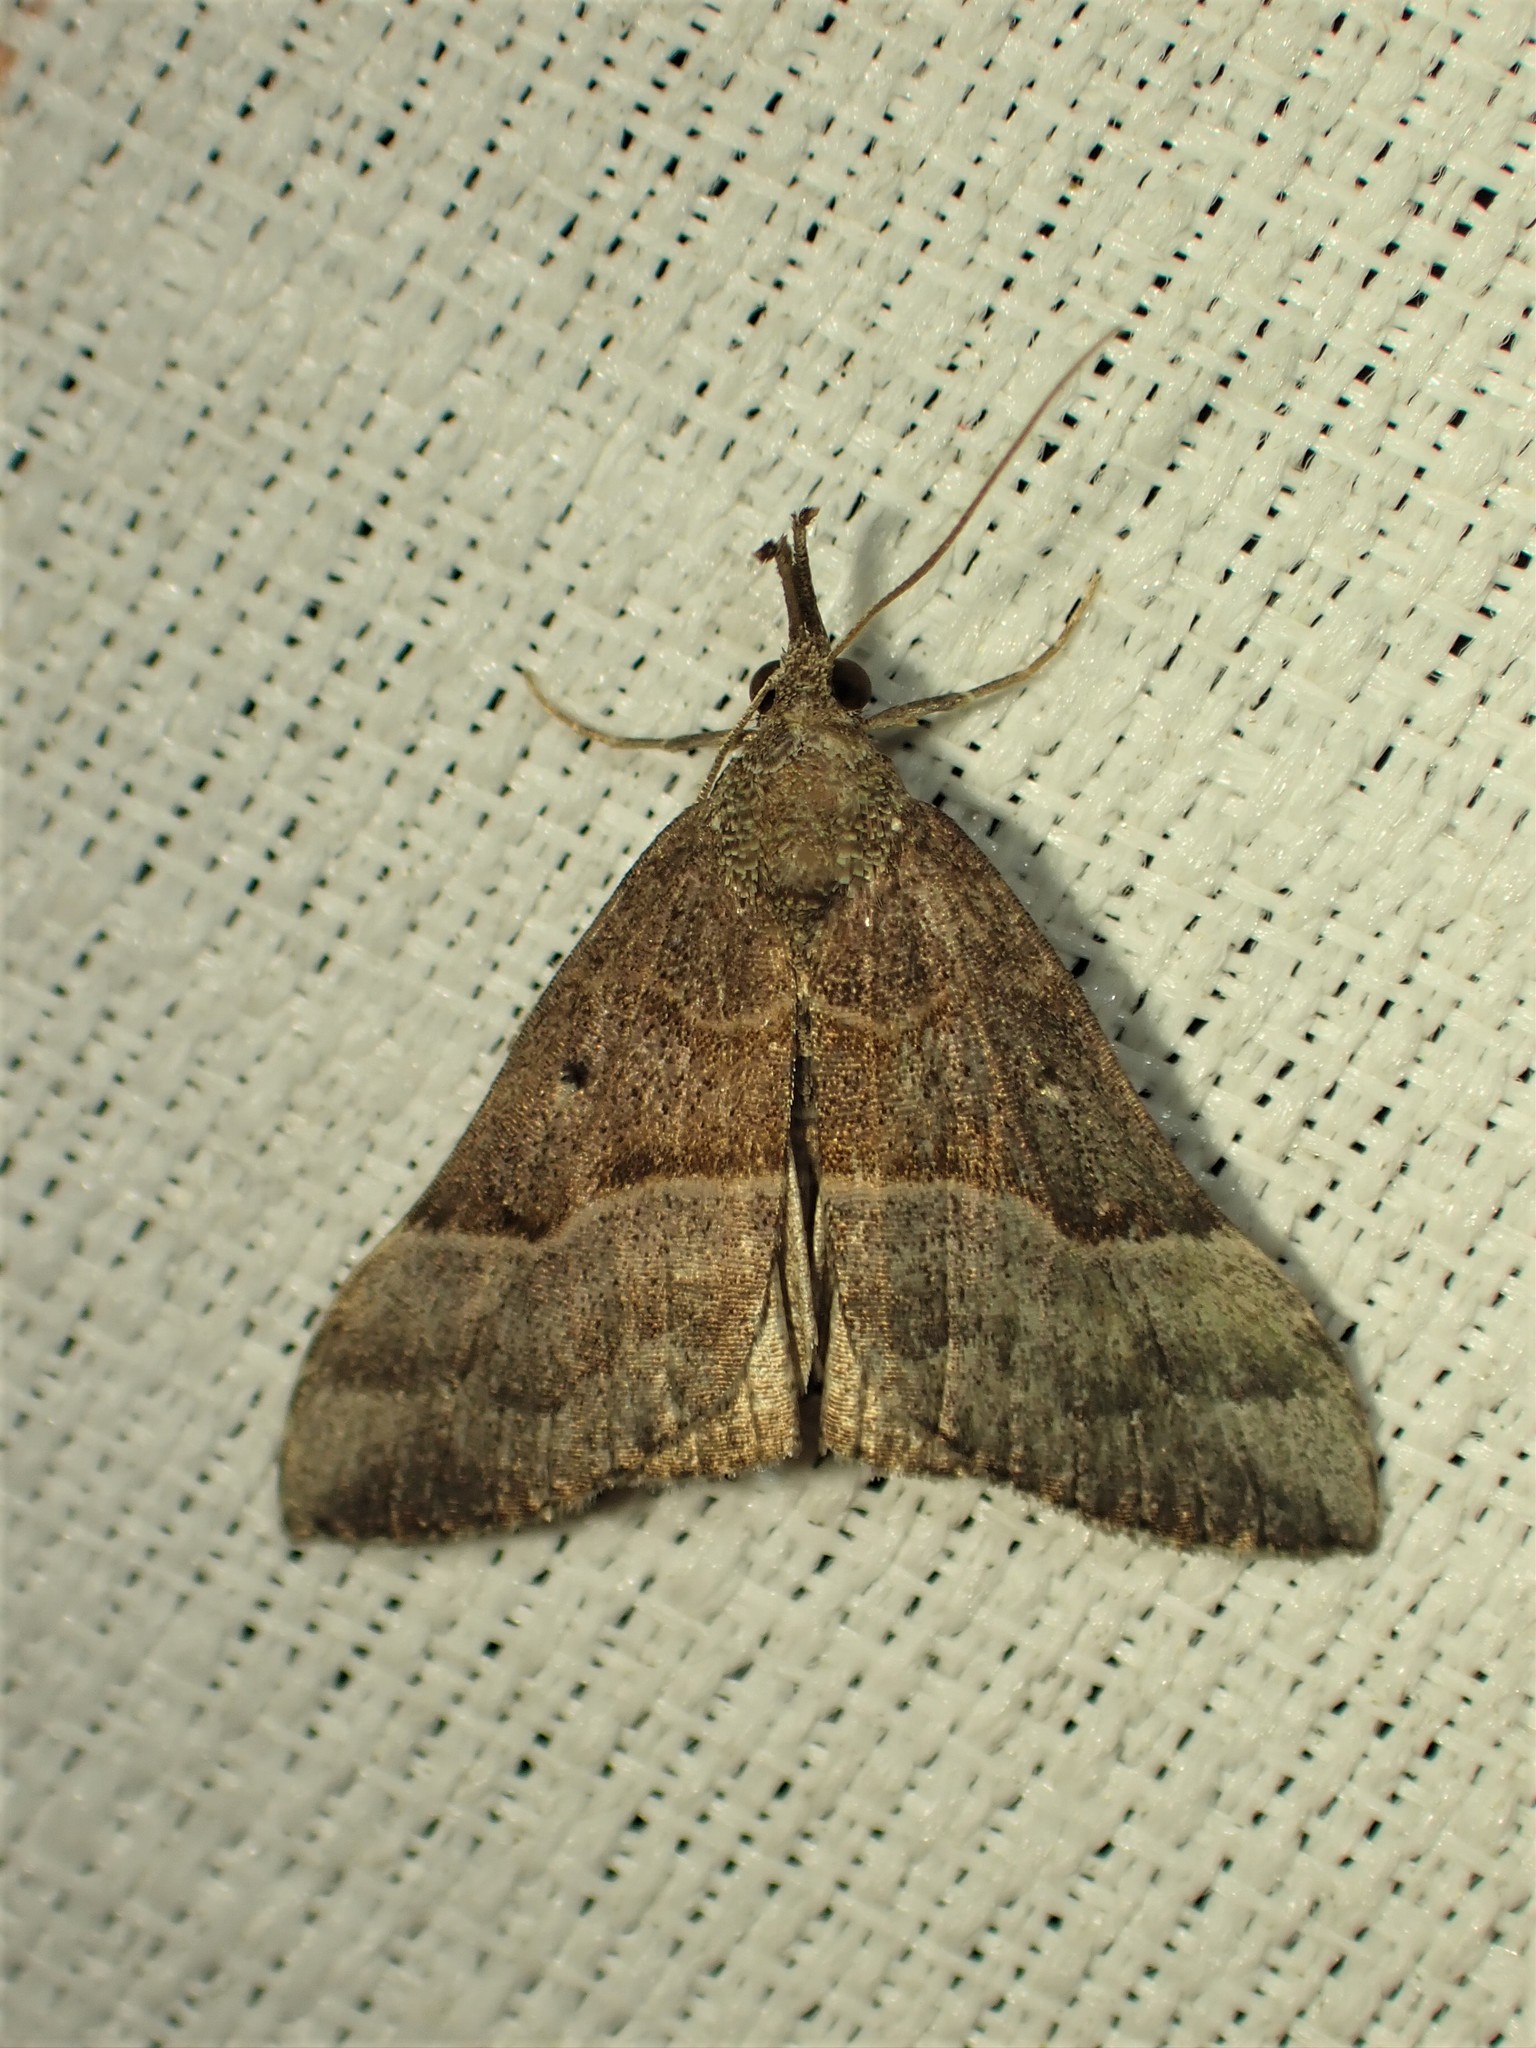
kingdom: Animalia
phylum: Arthropoda
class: Insecta
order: Lepidoptera
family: Erebidae
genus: Hypena
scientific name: Hypena eductalis
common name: Red-footed snout
